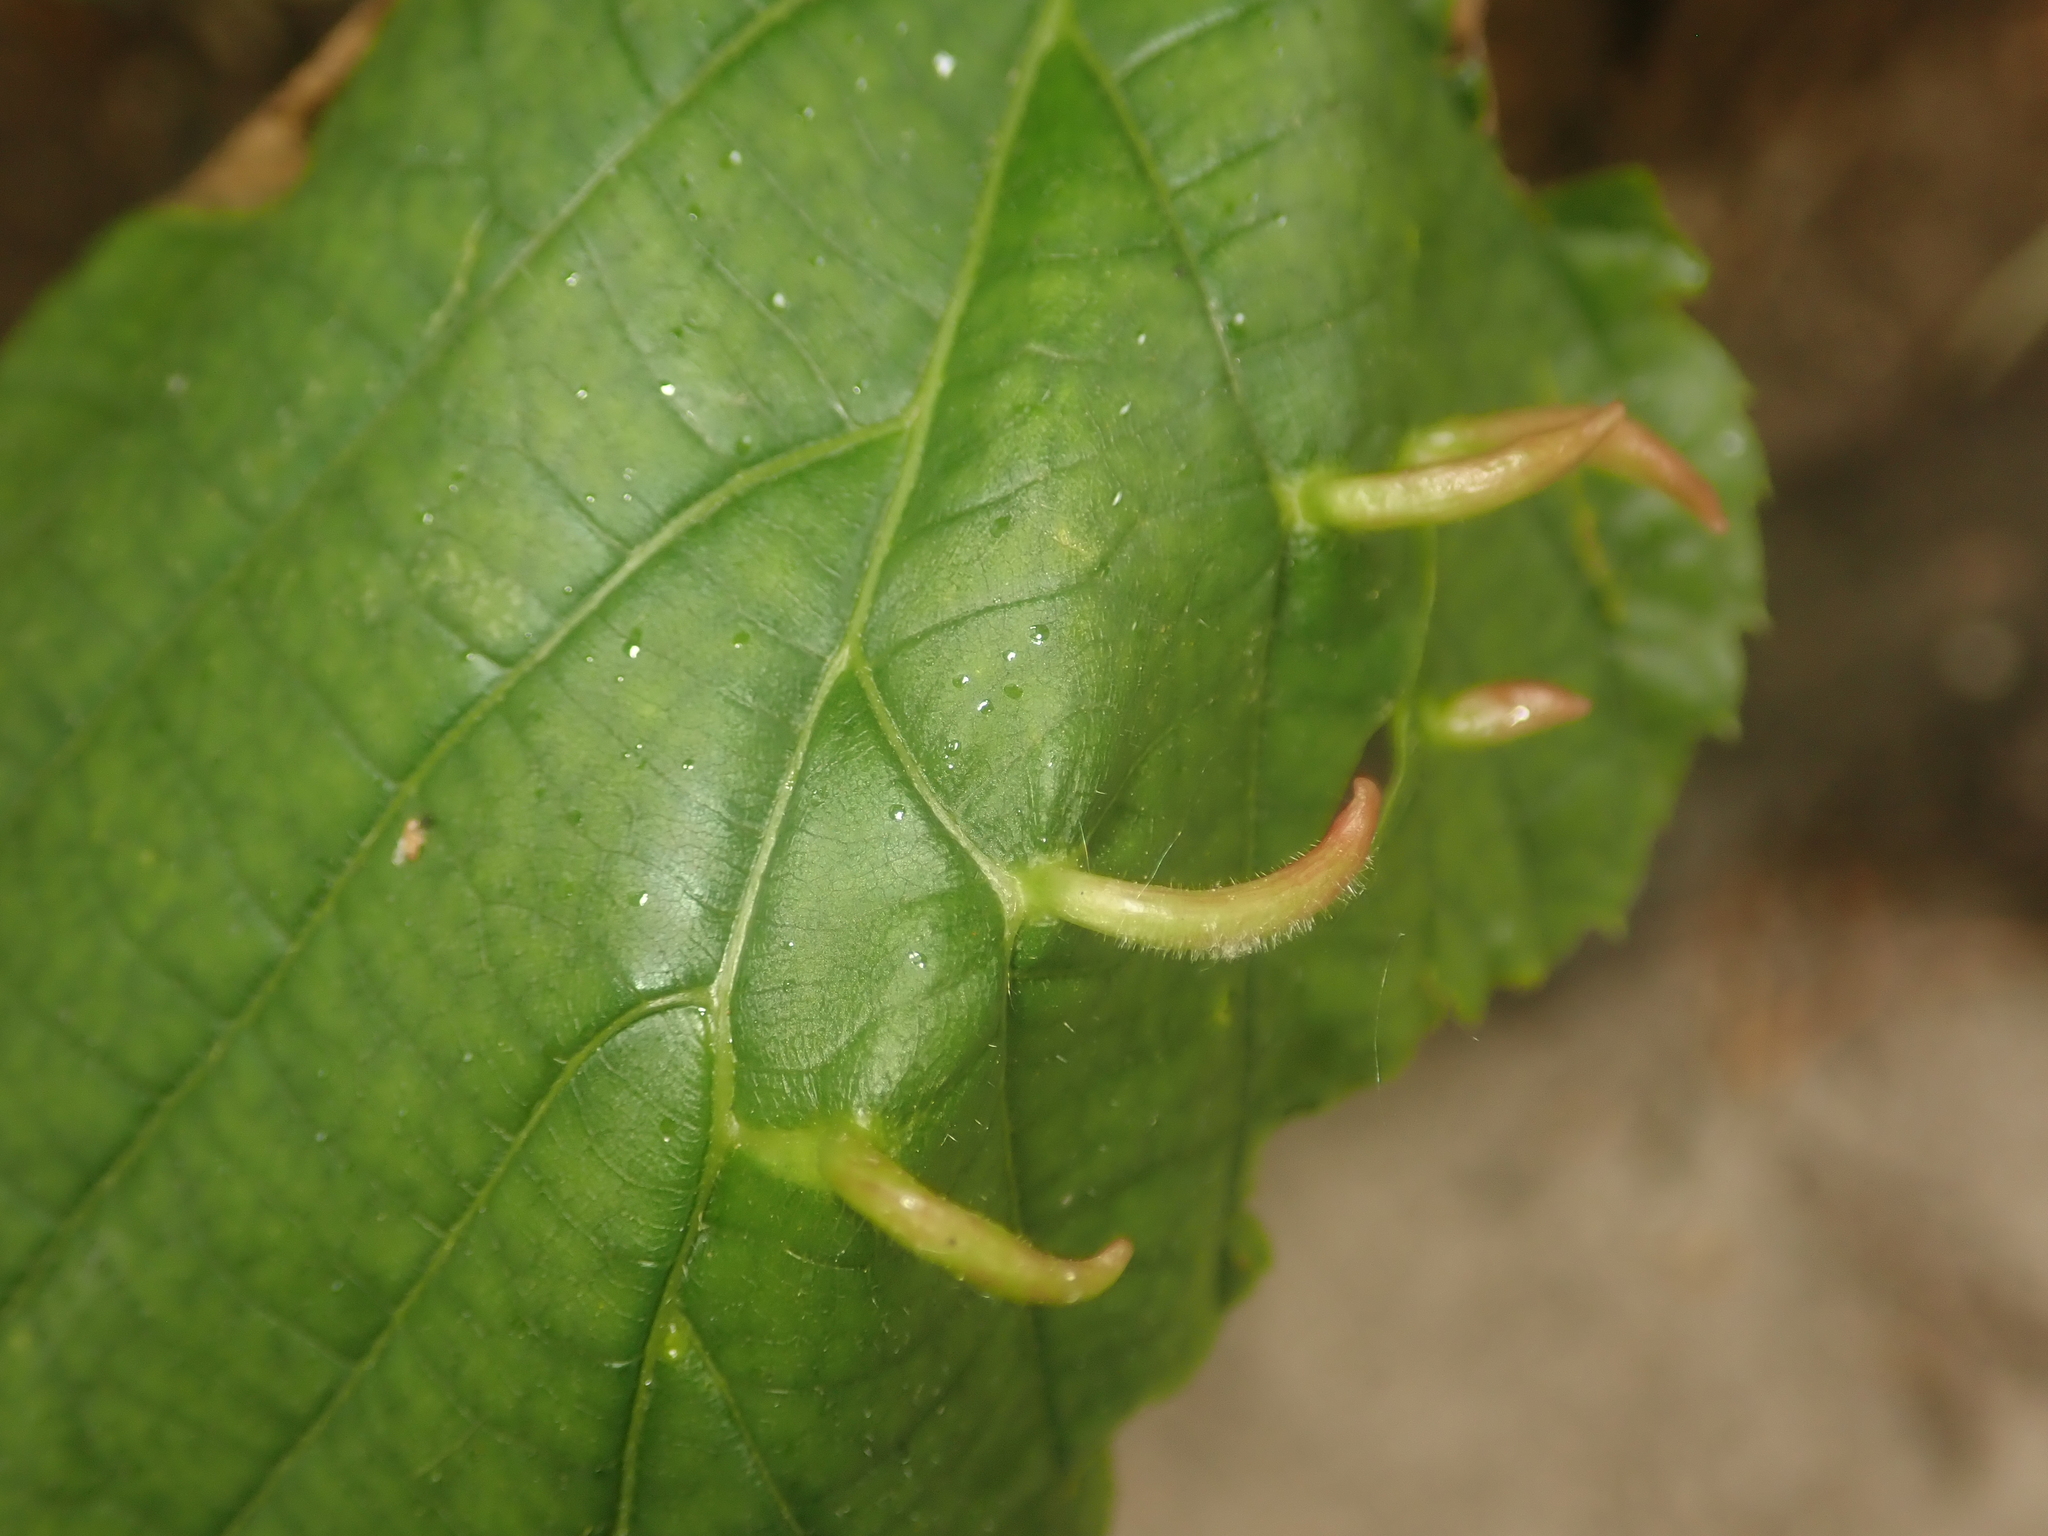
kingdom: Animalia
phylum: Arthropoda
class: Arachnida
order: Trombidiformes
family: Eriophyidae
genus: Eriophyes
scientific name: Eriophyes tiliae
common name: Red nail gall mite
